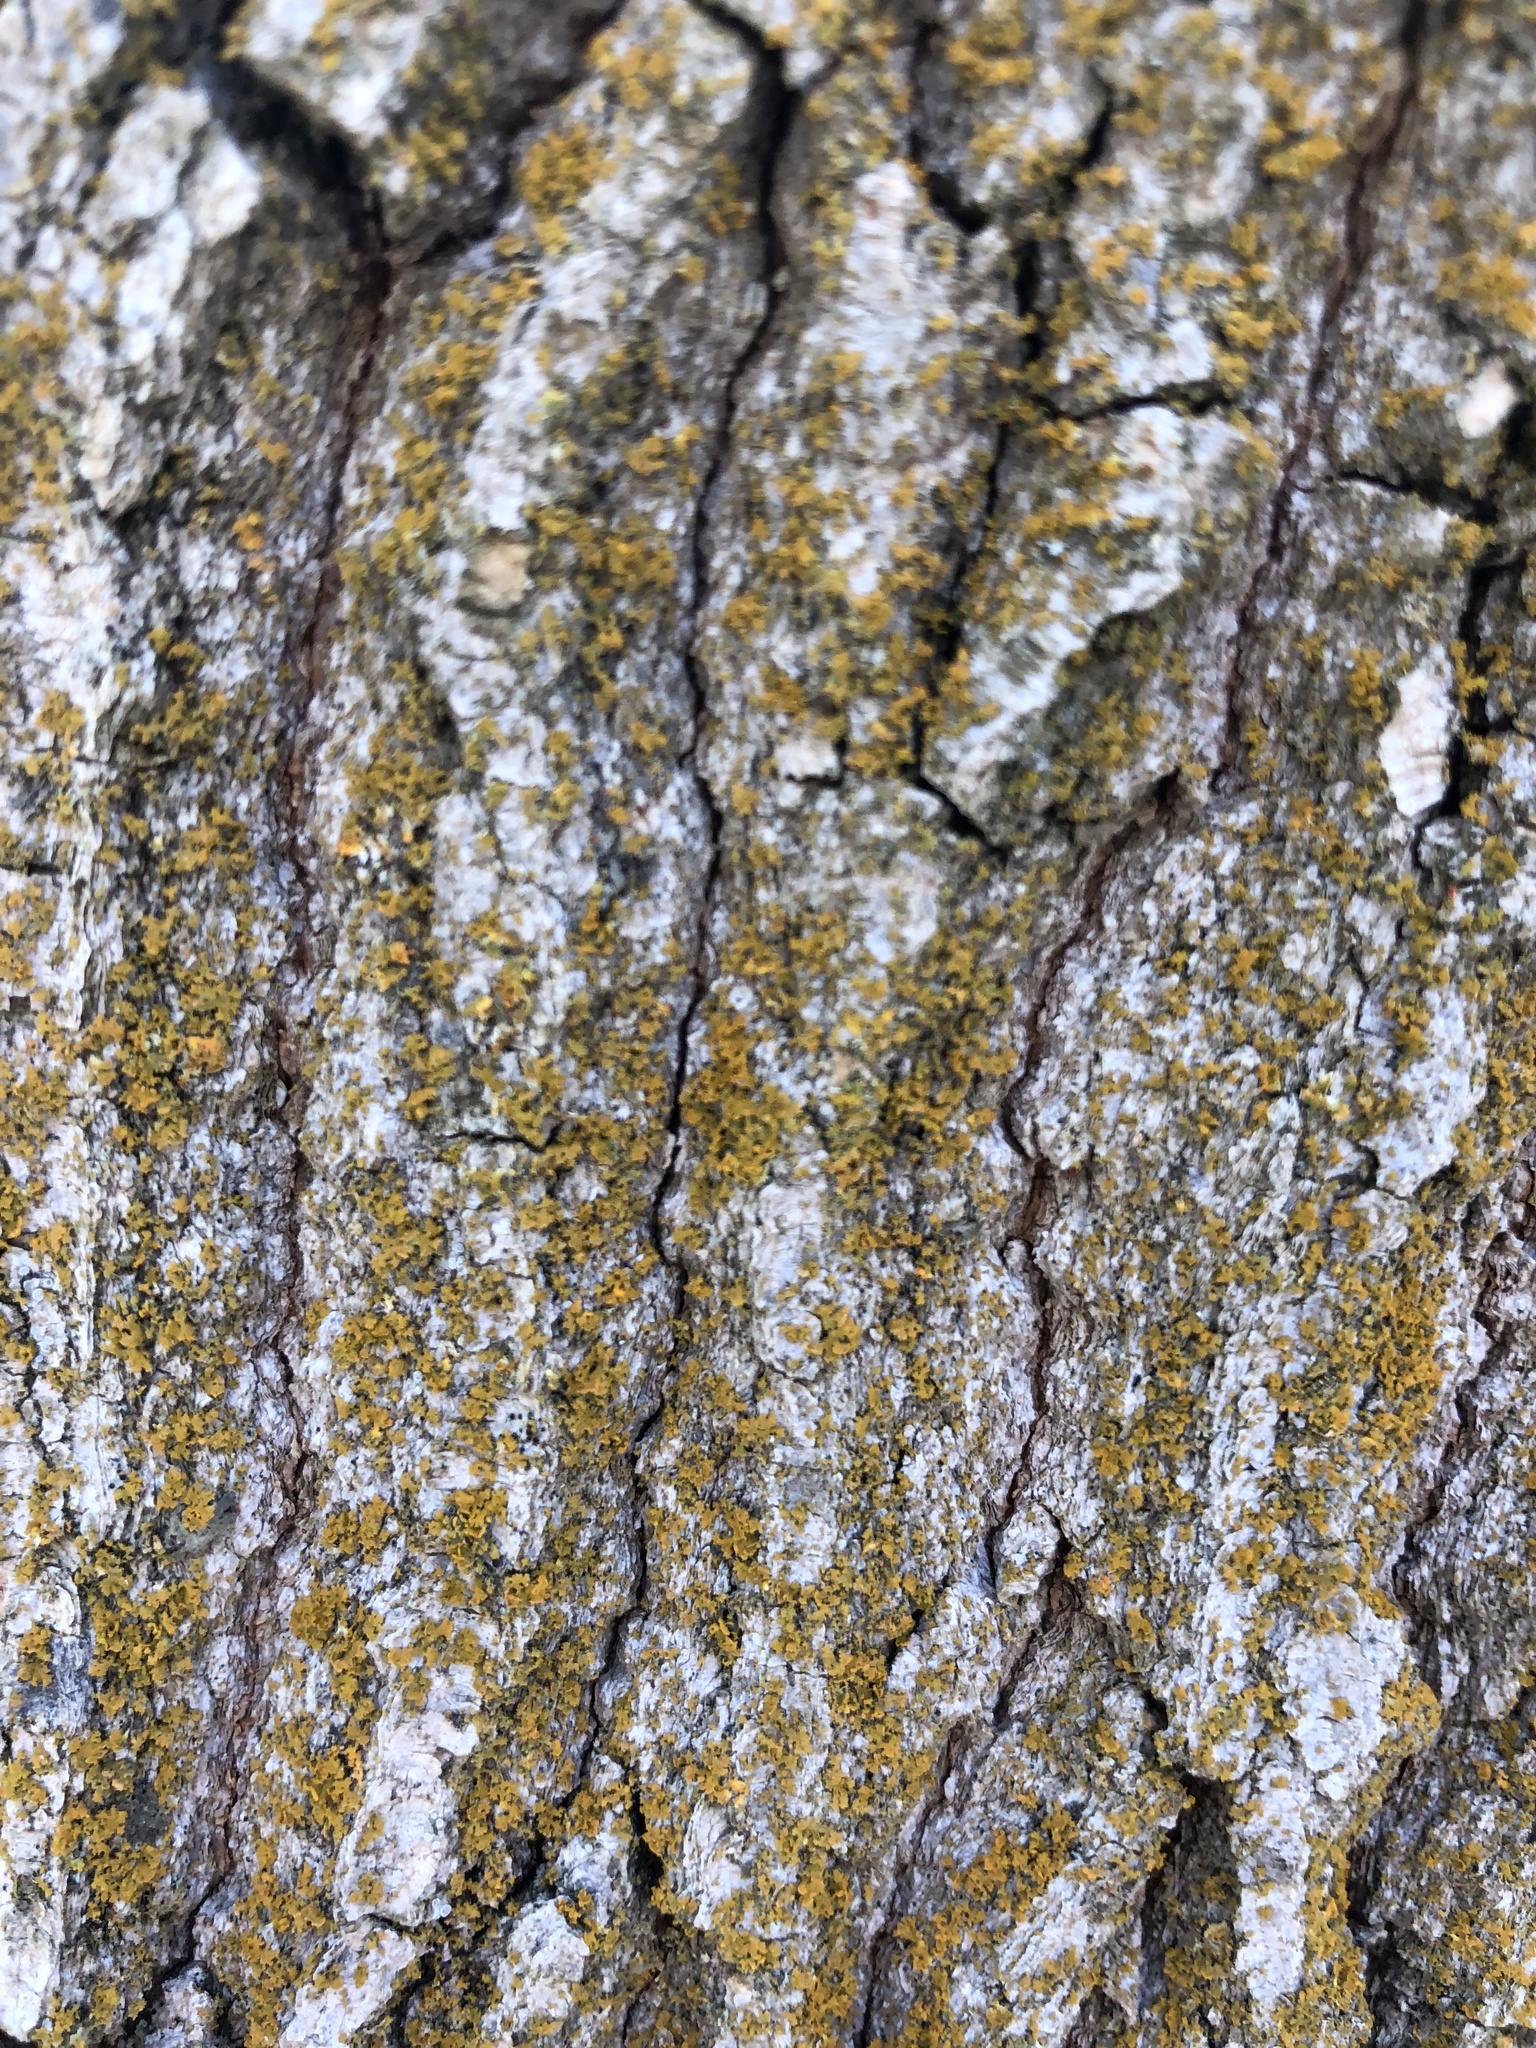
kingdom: Fungi
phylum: Ascomycota
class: Lecanoromycetes
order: Teloschistales
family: Teloschistaceae
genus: Oxneria
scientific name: Oxneria fallax
